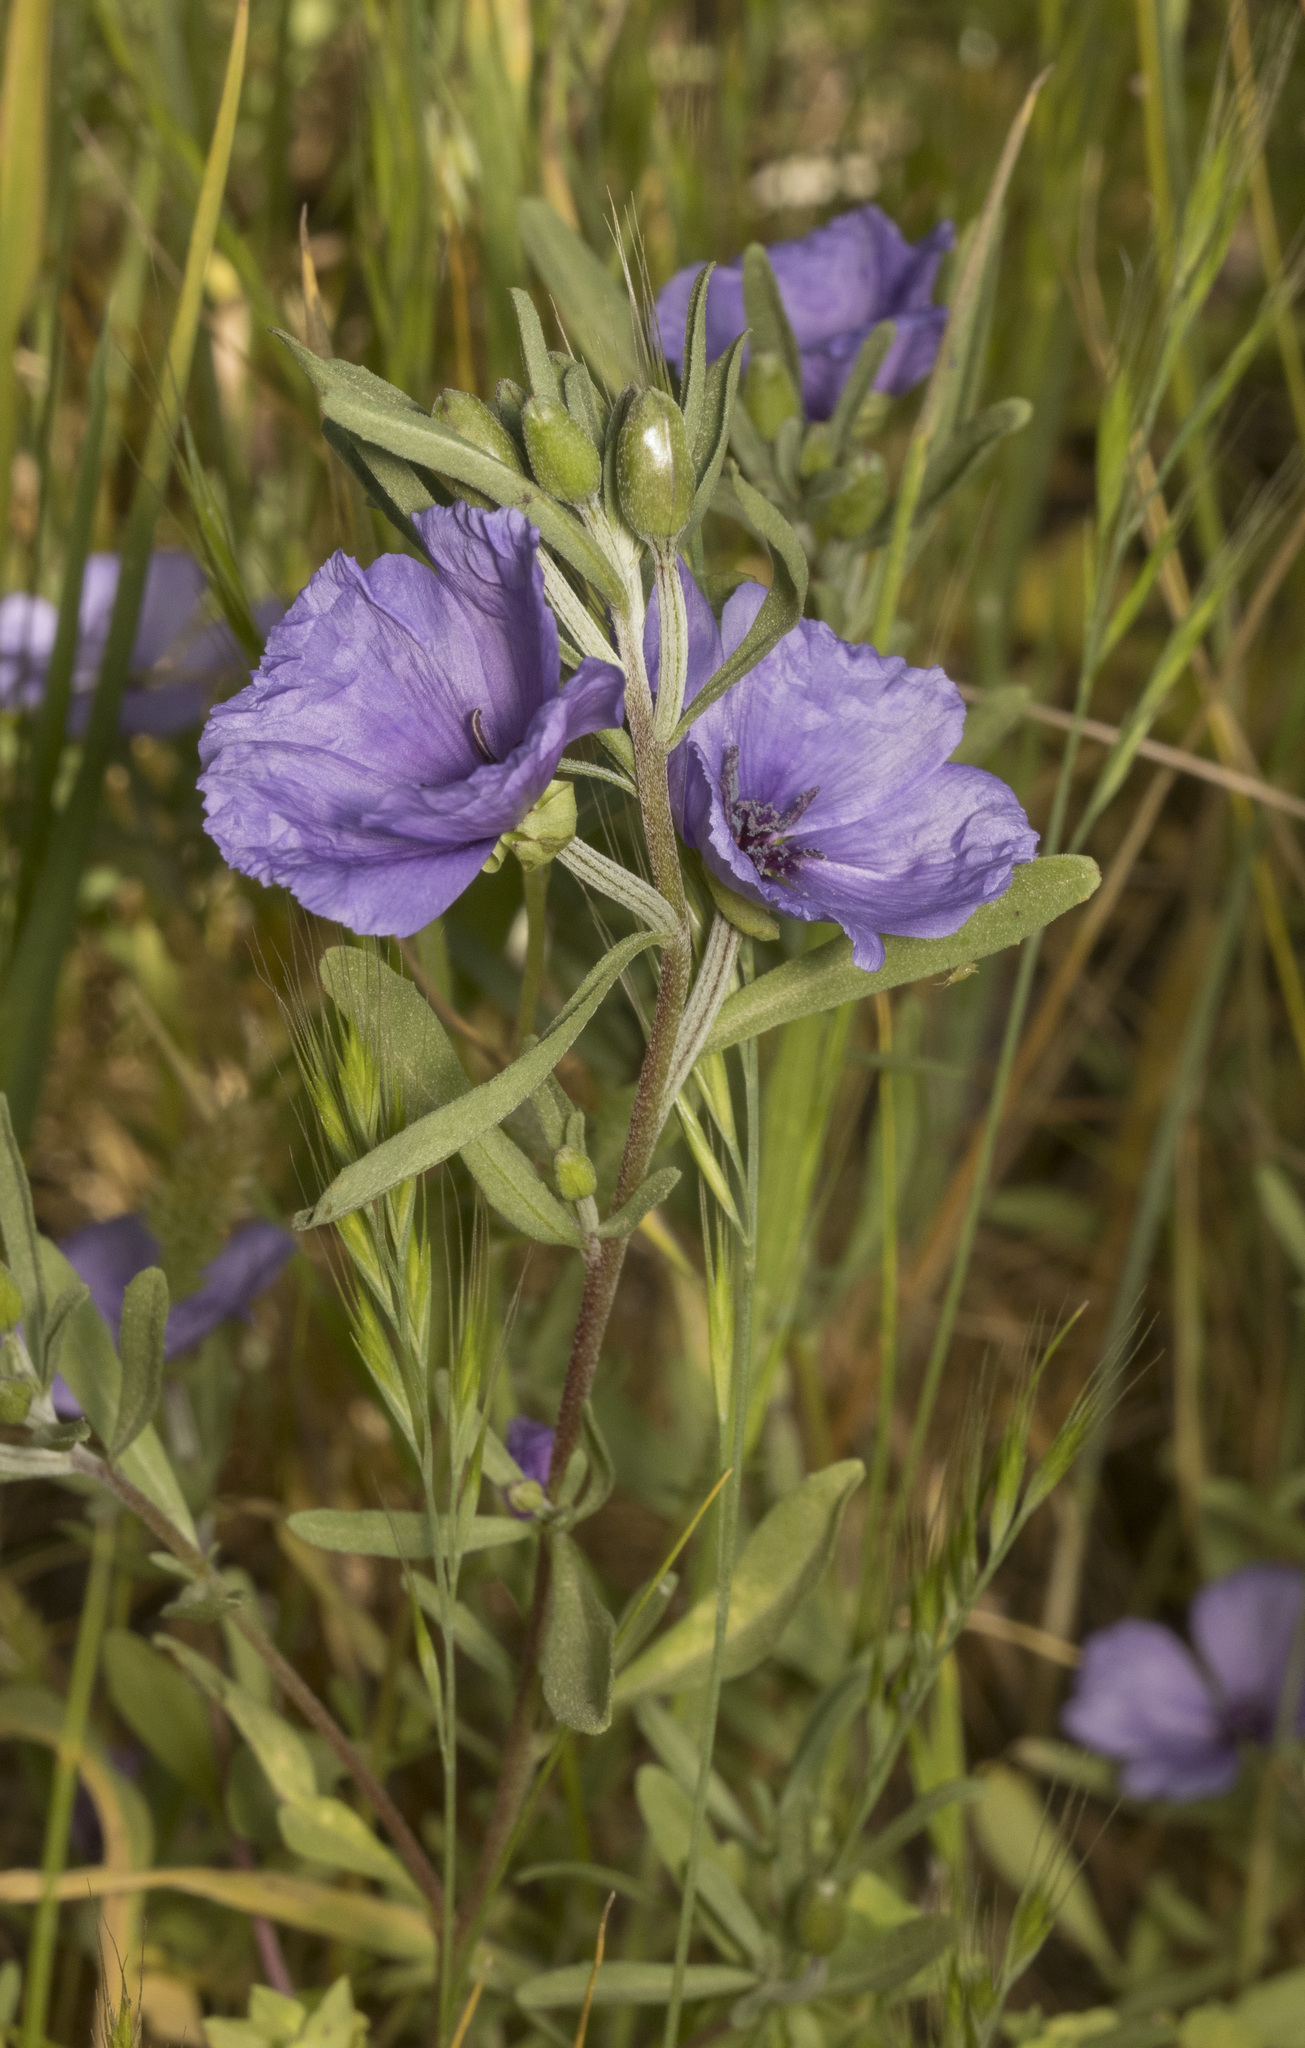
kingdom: Plantae
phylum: Tracheophyta
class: Magnoliopsida
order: Myrtales
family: Onagraceae
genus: Clarkia
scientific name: Clarkia tenella
